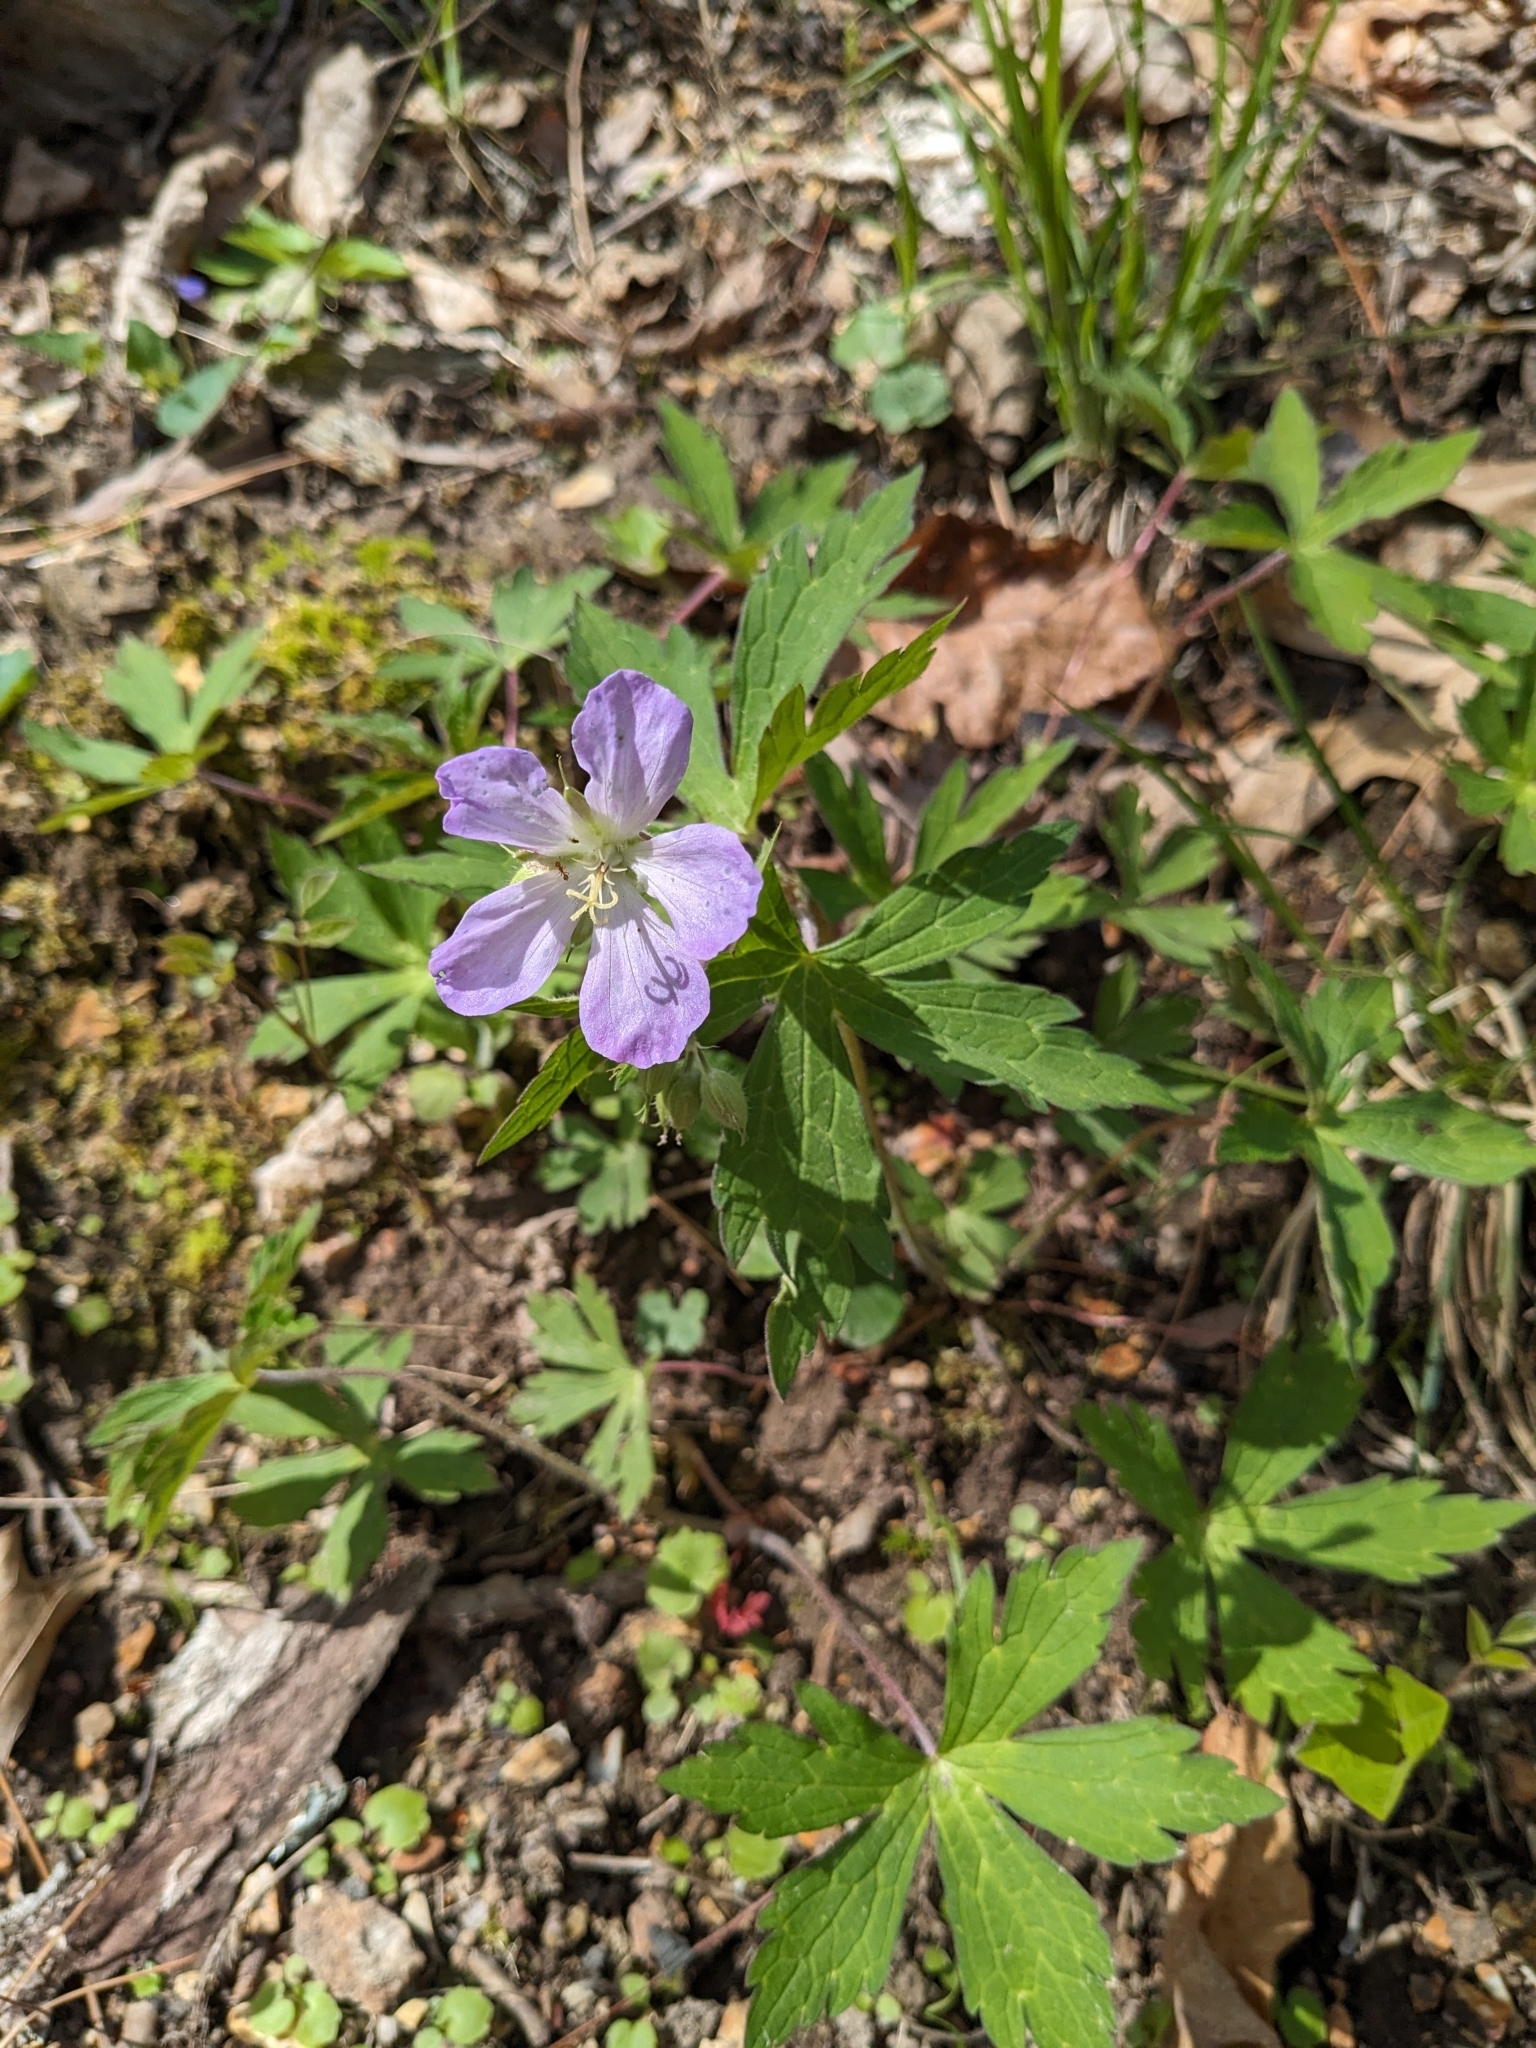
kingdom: Plantae
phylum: Tracheophyta
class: Magnoliopsida
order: Geraniales
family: Geraniaceae
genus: Geranium
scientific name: Geranium maculatum
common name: Spotted geranium
